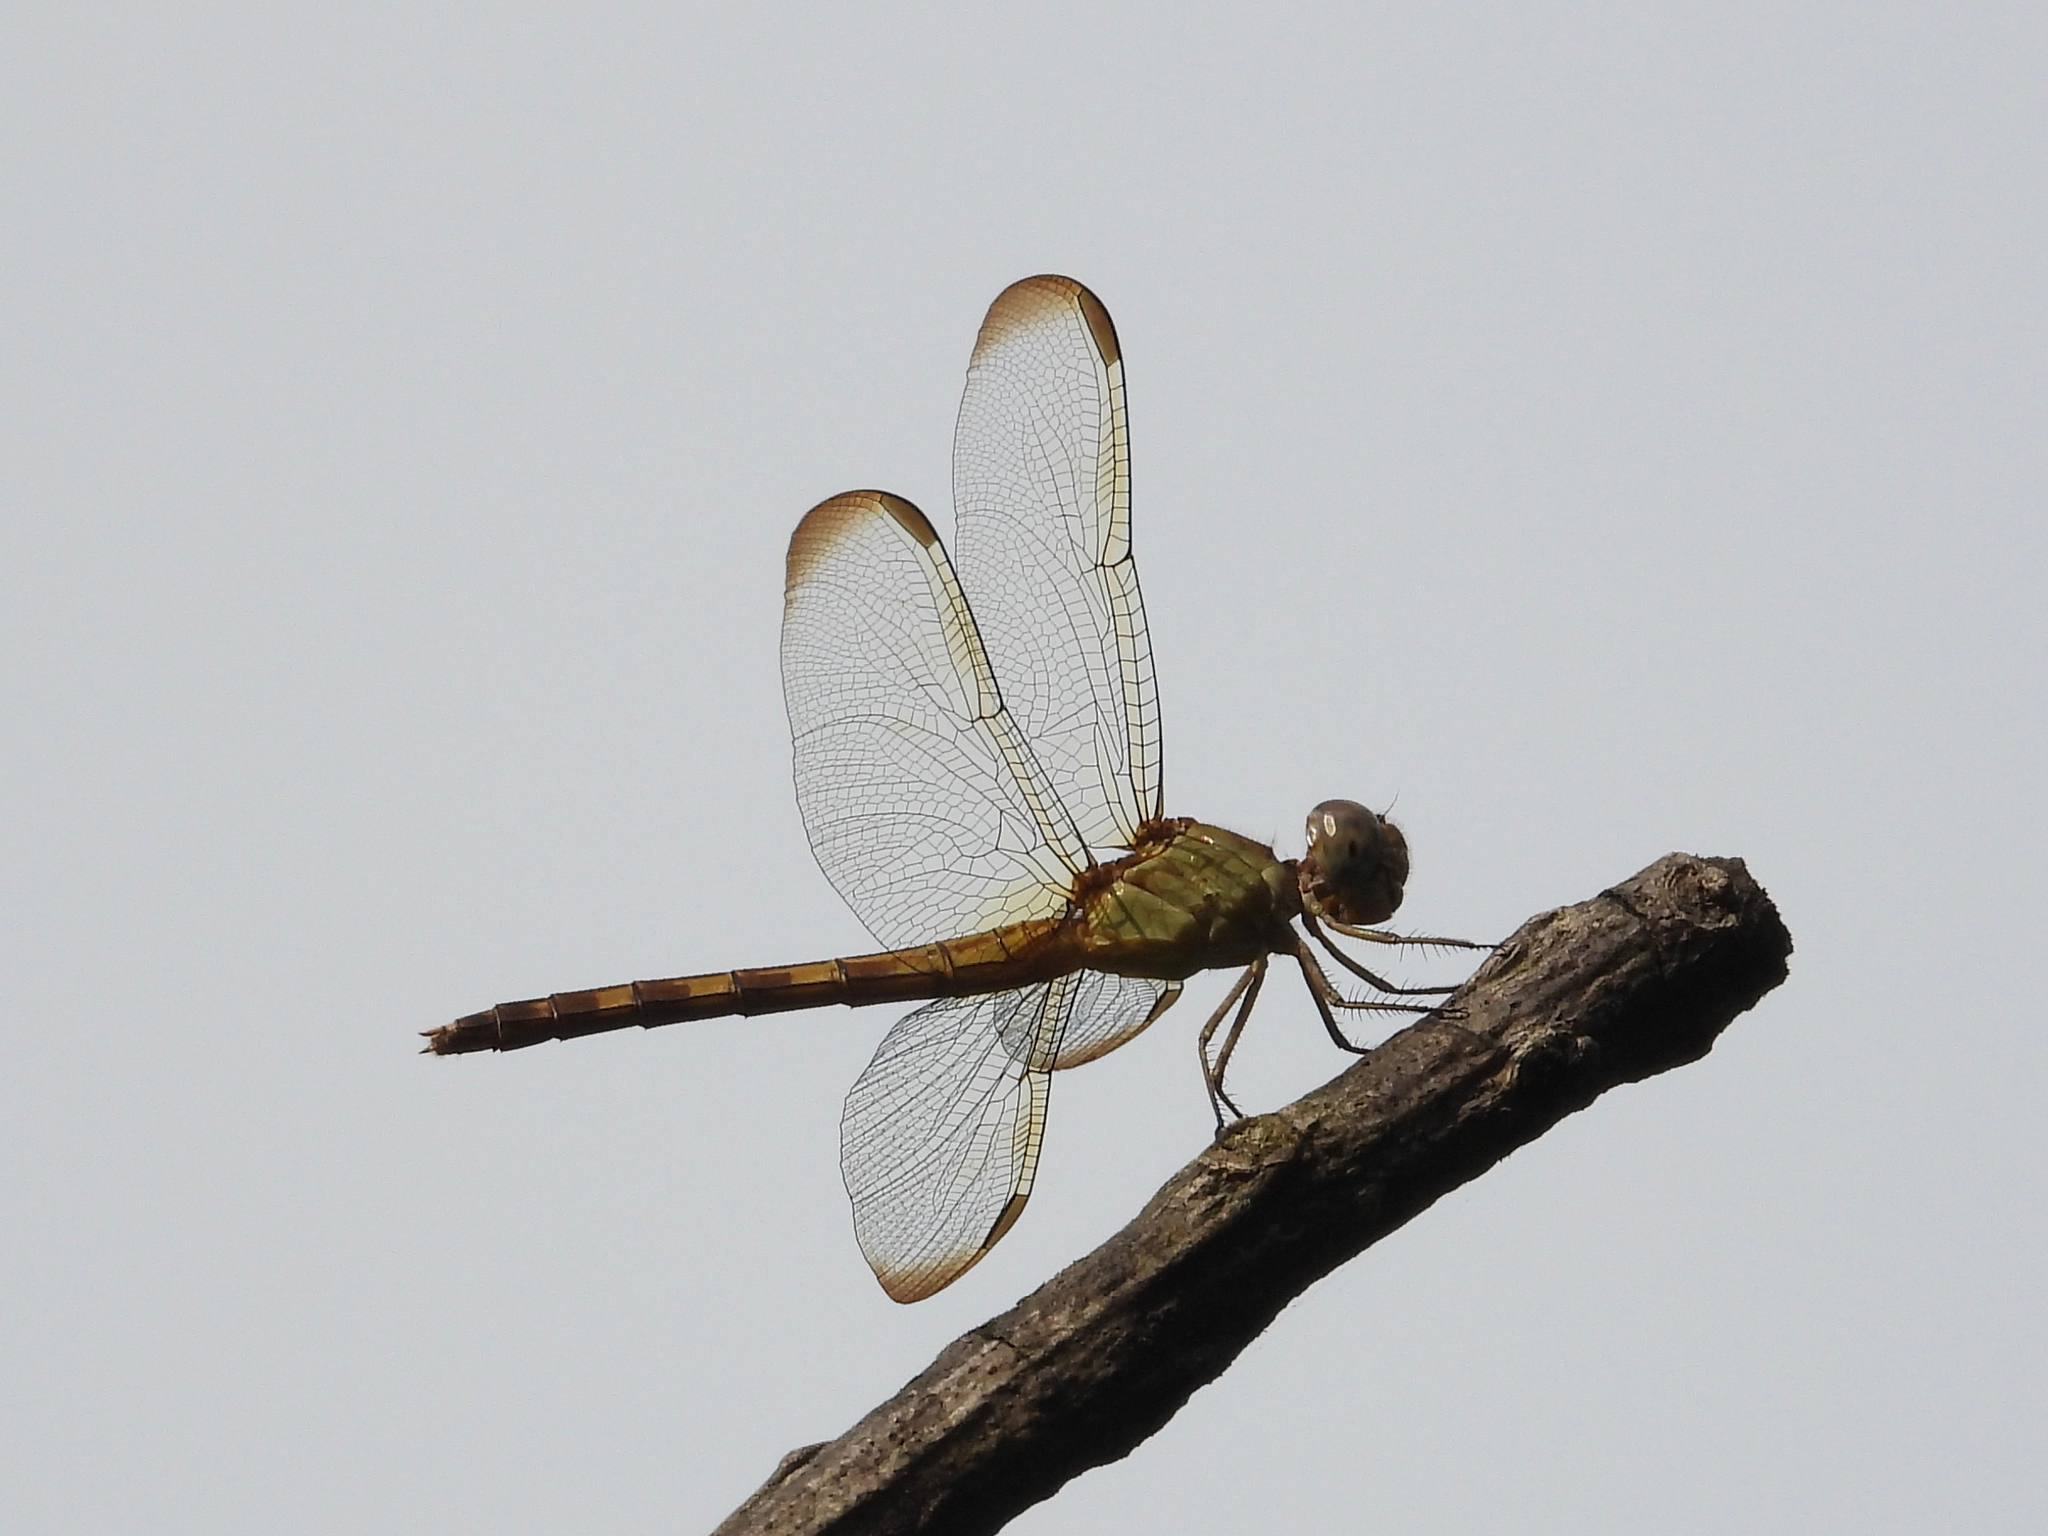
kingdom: Animalia
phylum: Arthropoda
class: Insecta
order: Odonata
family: Libellulidae
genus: Erythrodiplax
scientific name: Erythrodiplax funerea
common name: Black-winged dragonlet
